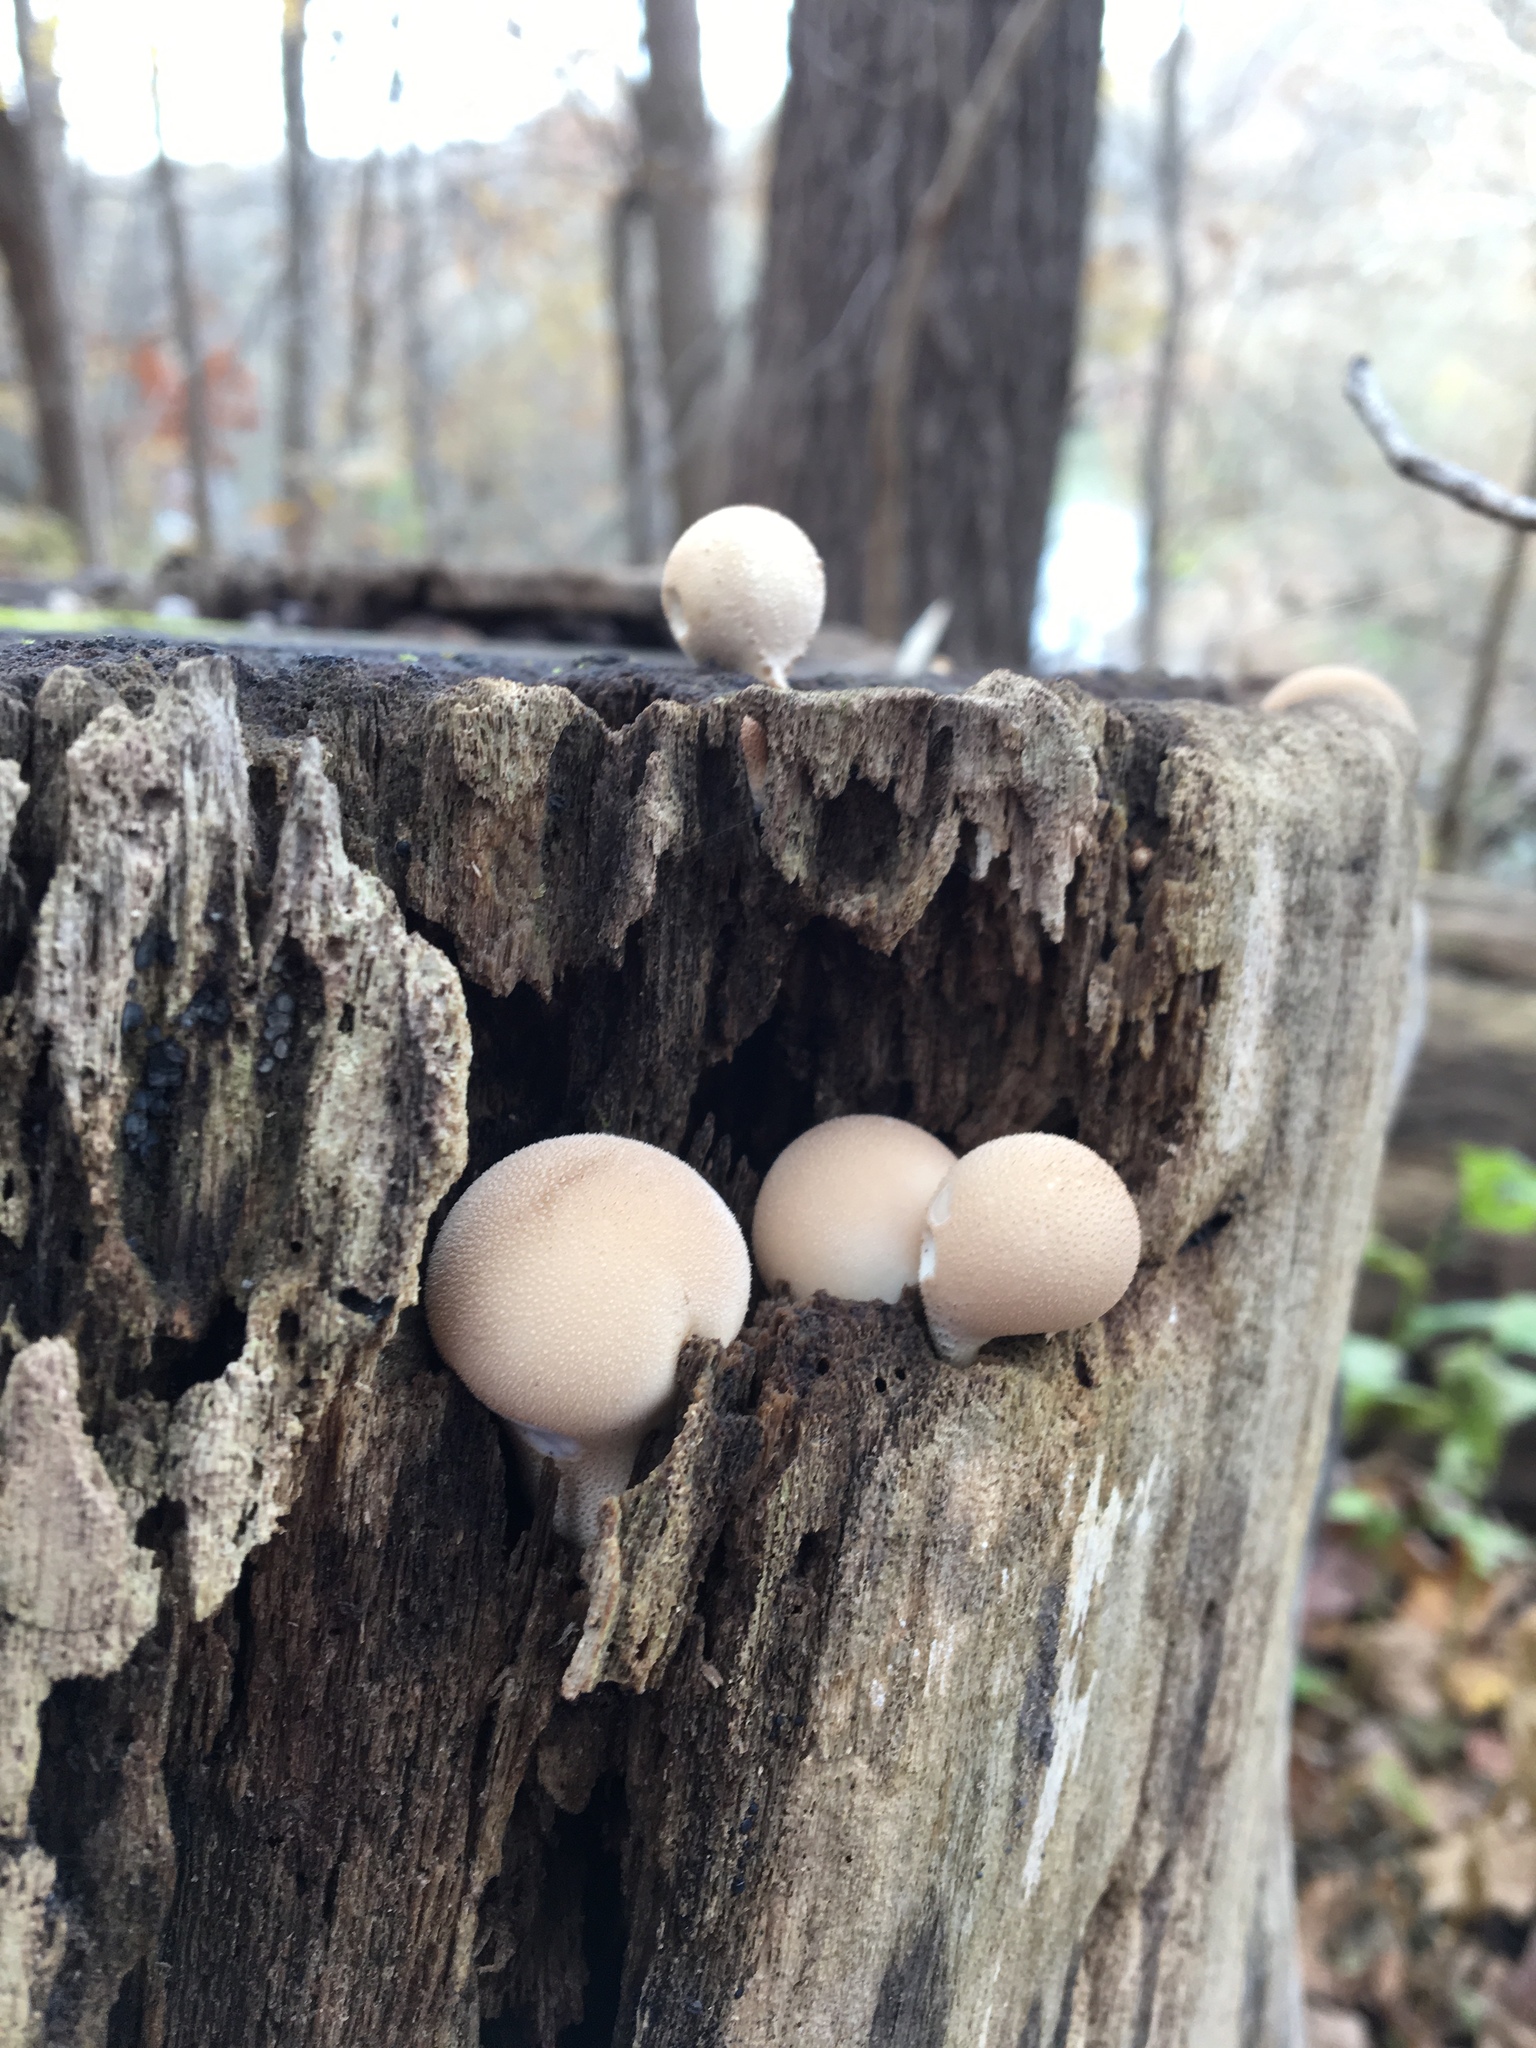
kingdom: Fungi
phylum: Basidiomycota
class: Agaricomycetes
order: Agaricales
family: Lycoperdaceae
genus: Apioperdon
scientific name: Apioperdon pyriforme
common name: Pear-shaped puffball
